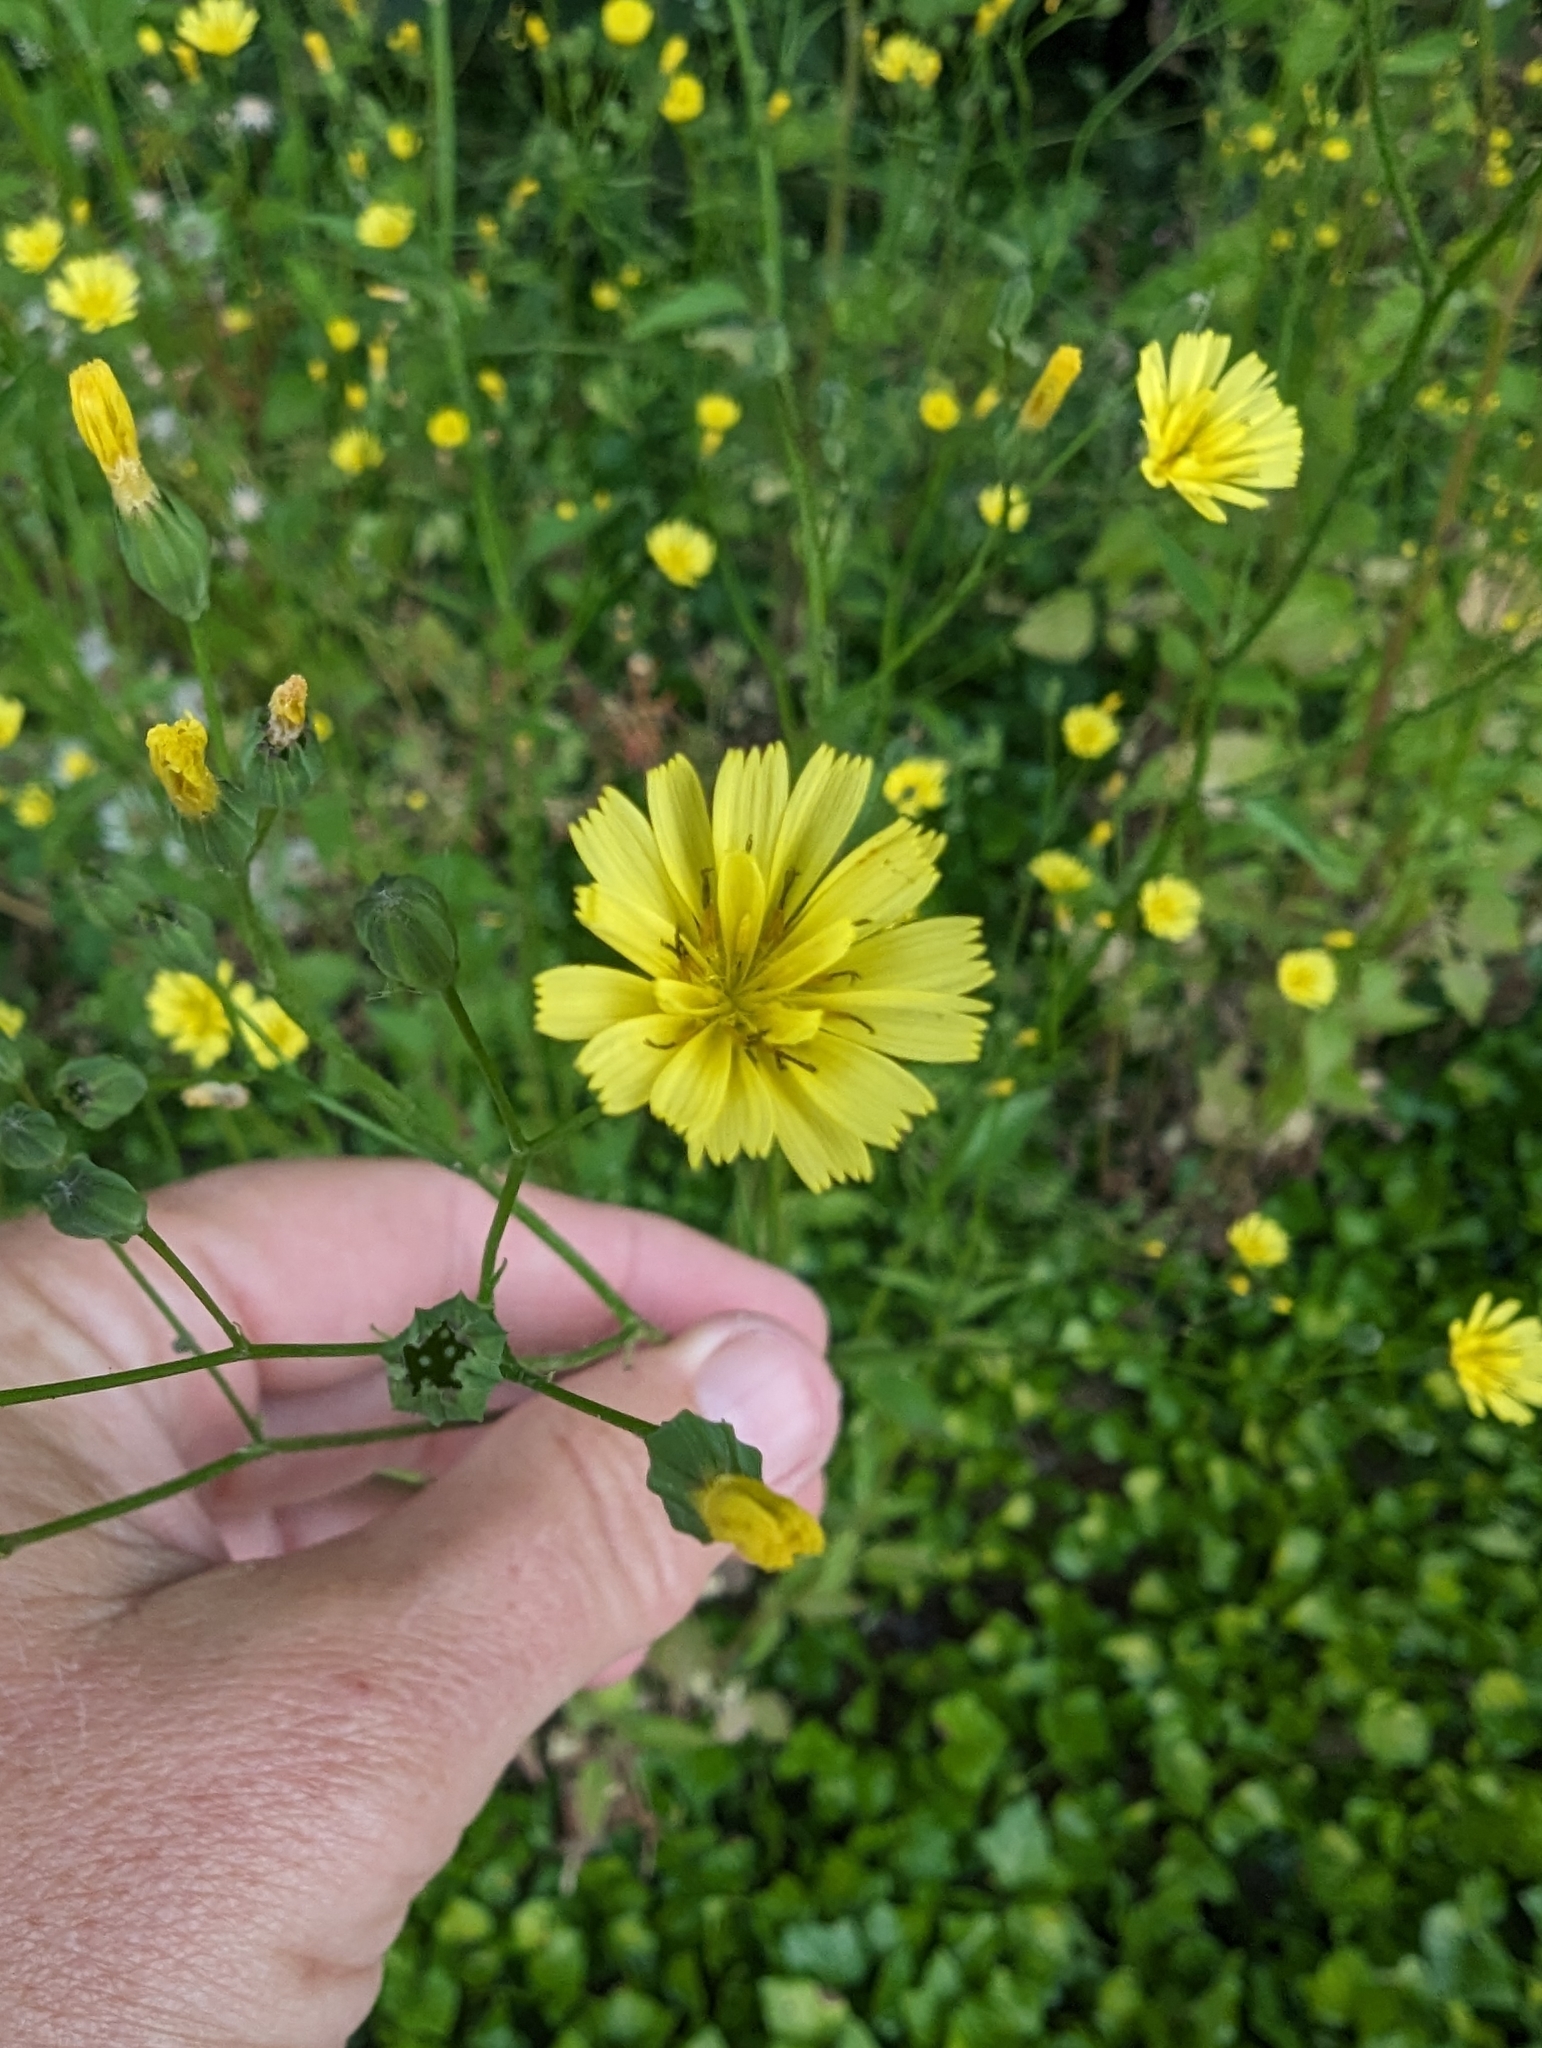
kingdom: Plantae
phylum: Tracheophyta
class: Magnoliopsida
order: Asterales
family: Asteraceae
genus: Lapsana
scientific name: Lapsana communis
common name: Nipplewort
